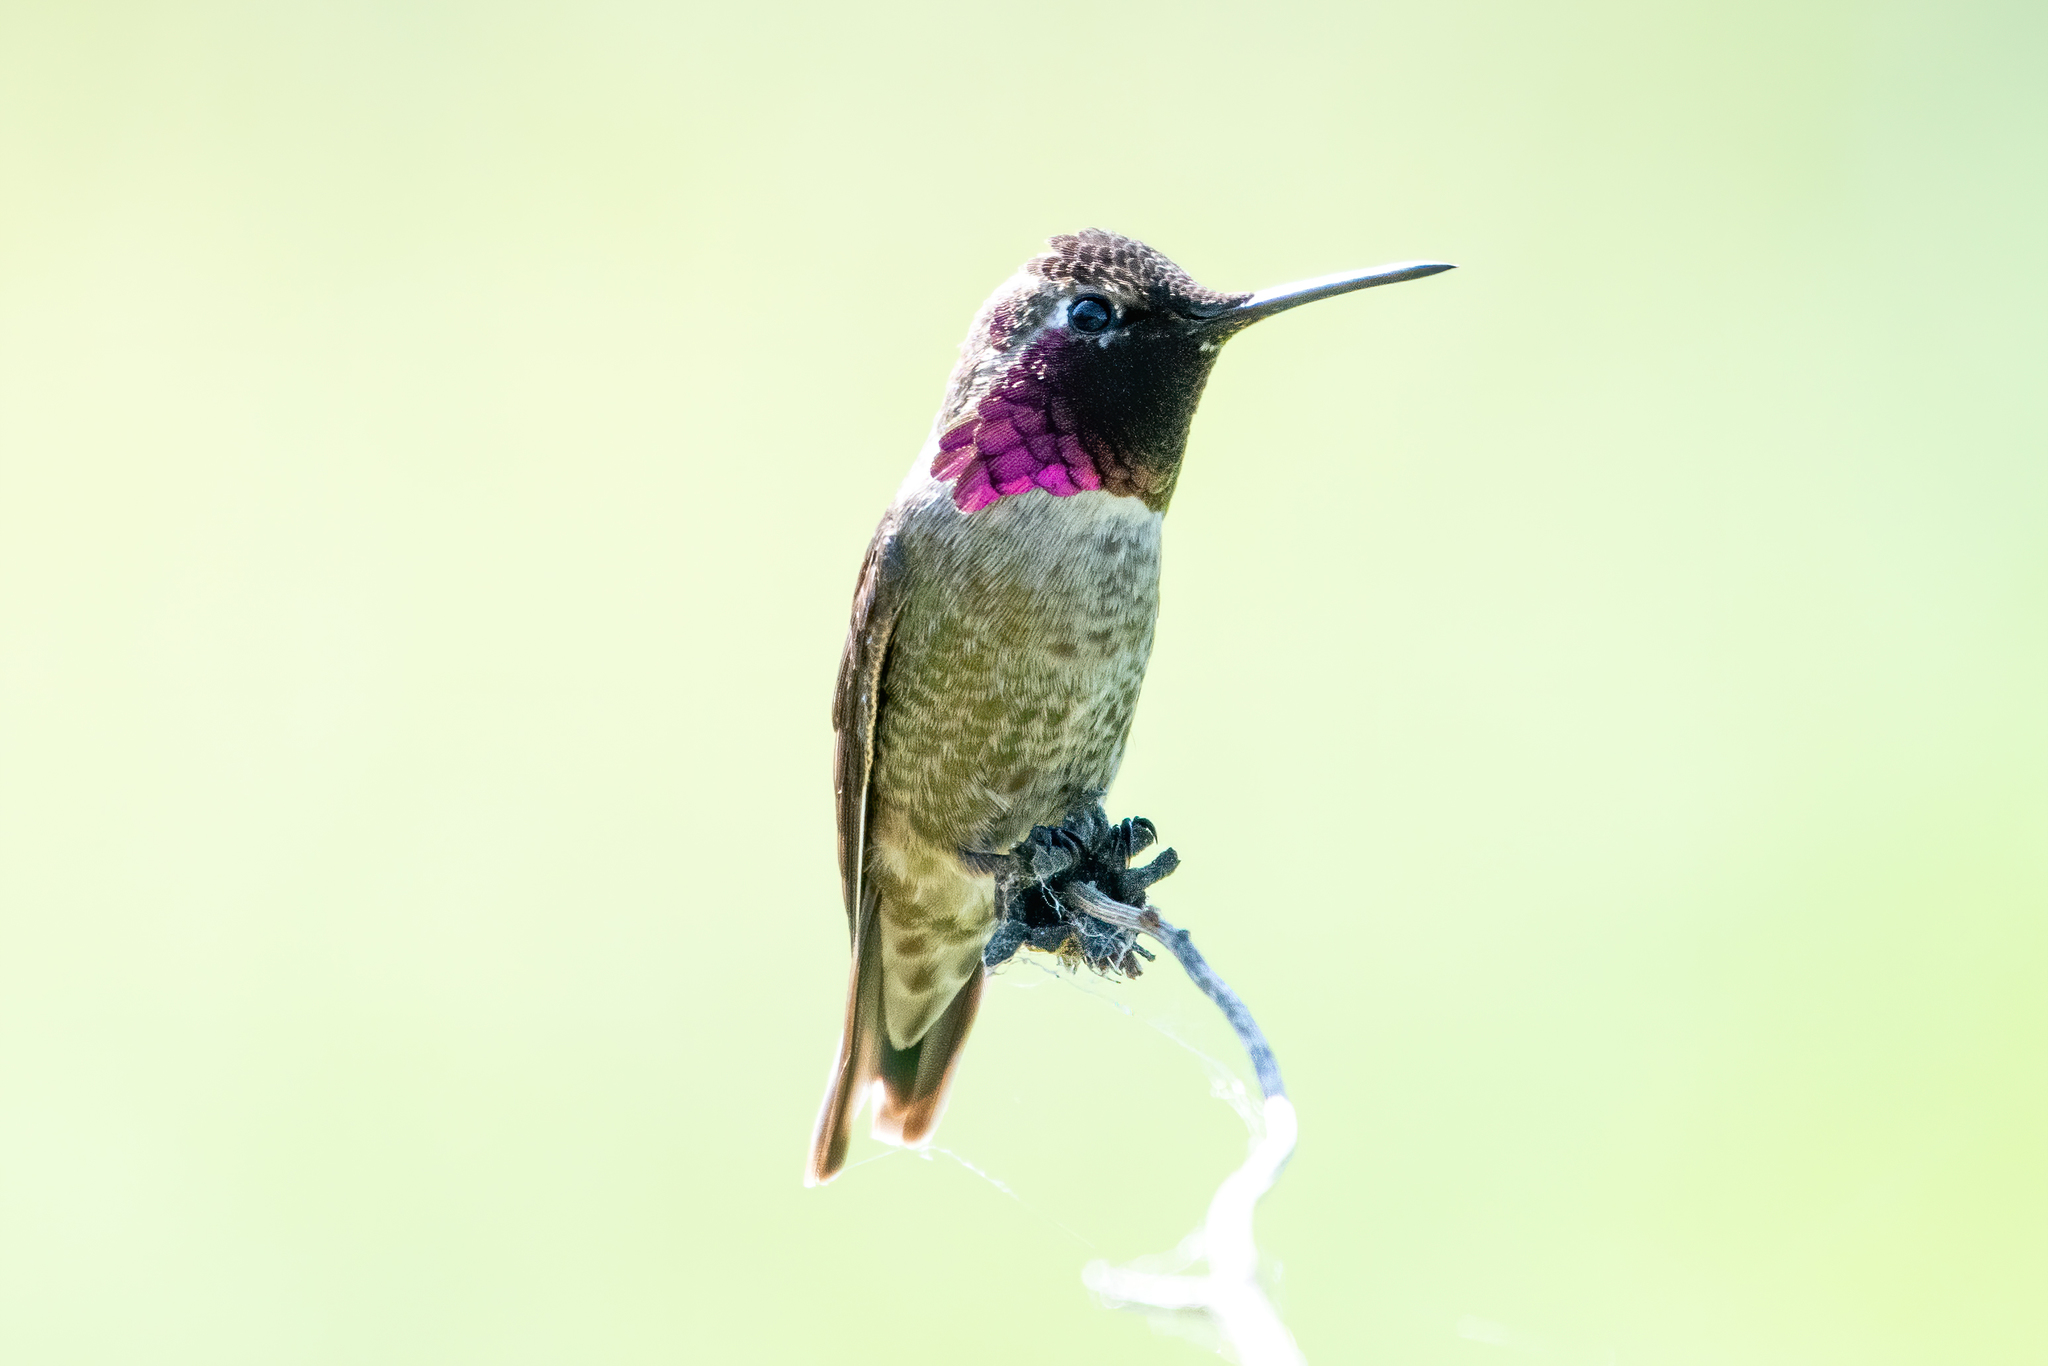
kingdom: Animalia
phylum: Chordata
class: Aves
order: Apodiformes
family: Trochilidae
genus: Calypte
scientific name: Calypte anna
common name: Anna's hummingbird
